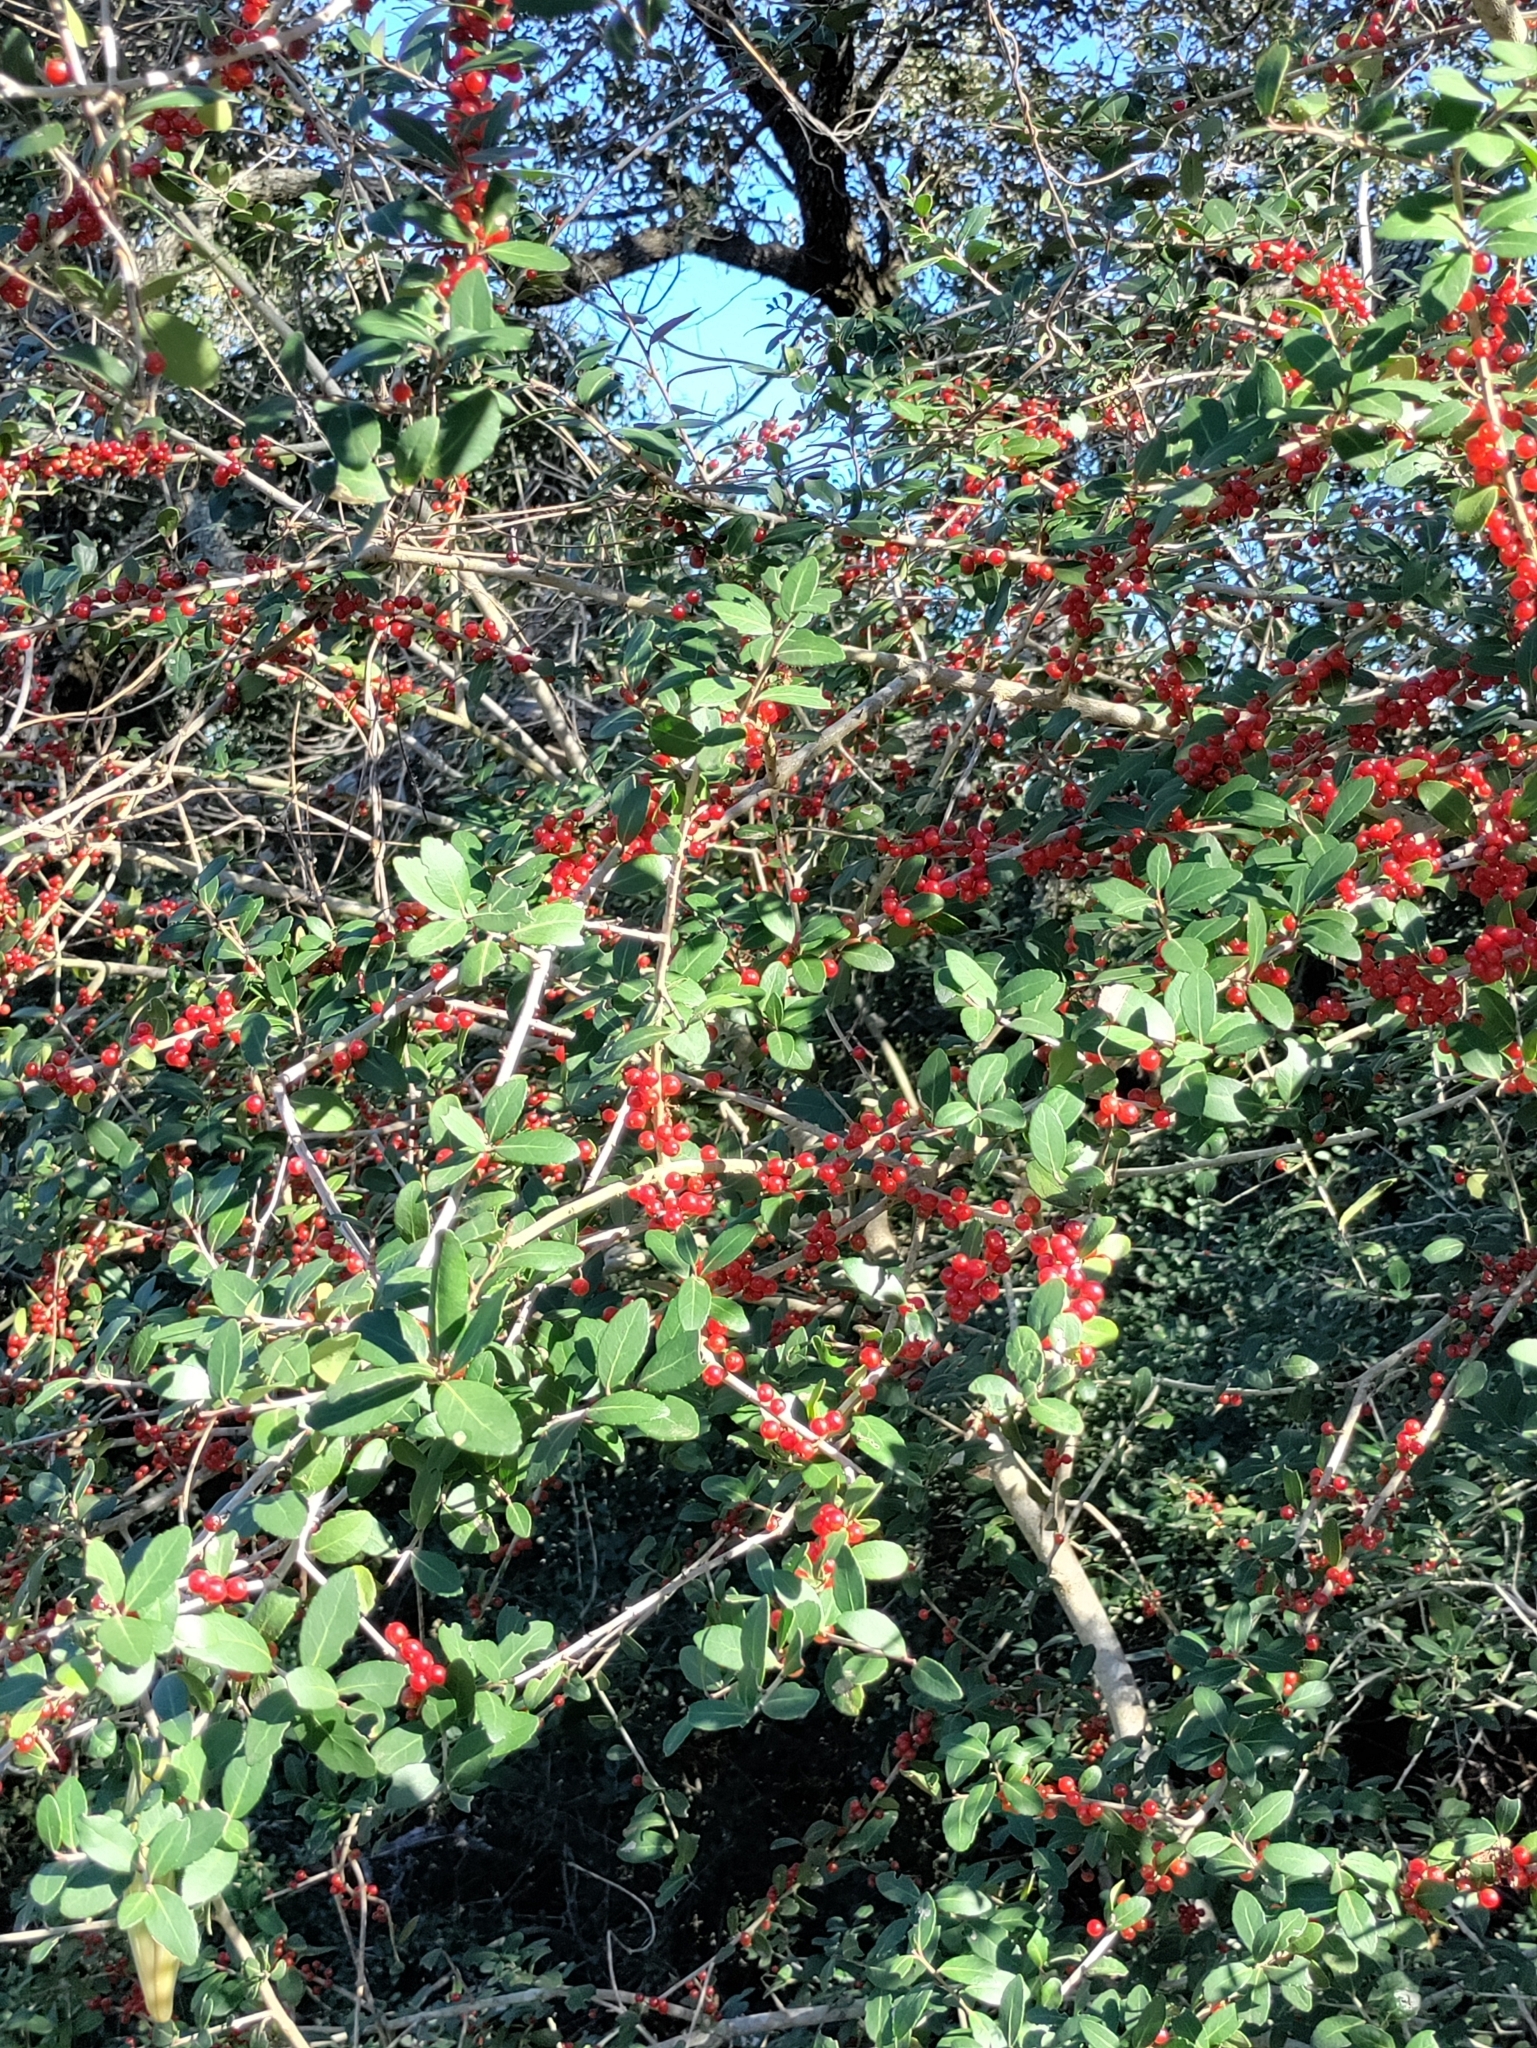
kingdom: Plantae
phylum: Tracheophyta
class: Magnoliopsida
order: Aquifoliales
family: Aquifoliaceae
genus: Ilex
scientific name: Ilex vomitoria
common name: Yaupon holly
